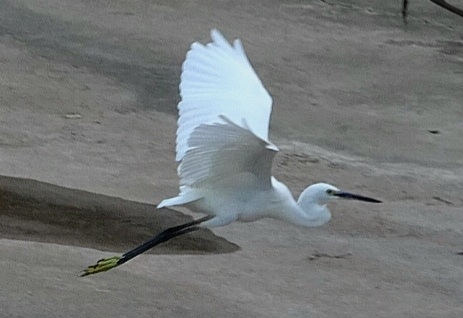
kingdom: Animalia
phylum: Chordata
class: Aves
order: Pelecaniformes
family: Ardeidae
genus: Egretta
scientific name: Egretta garzetta
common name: Little egret
